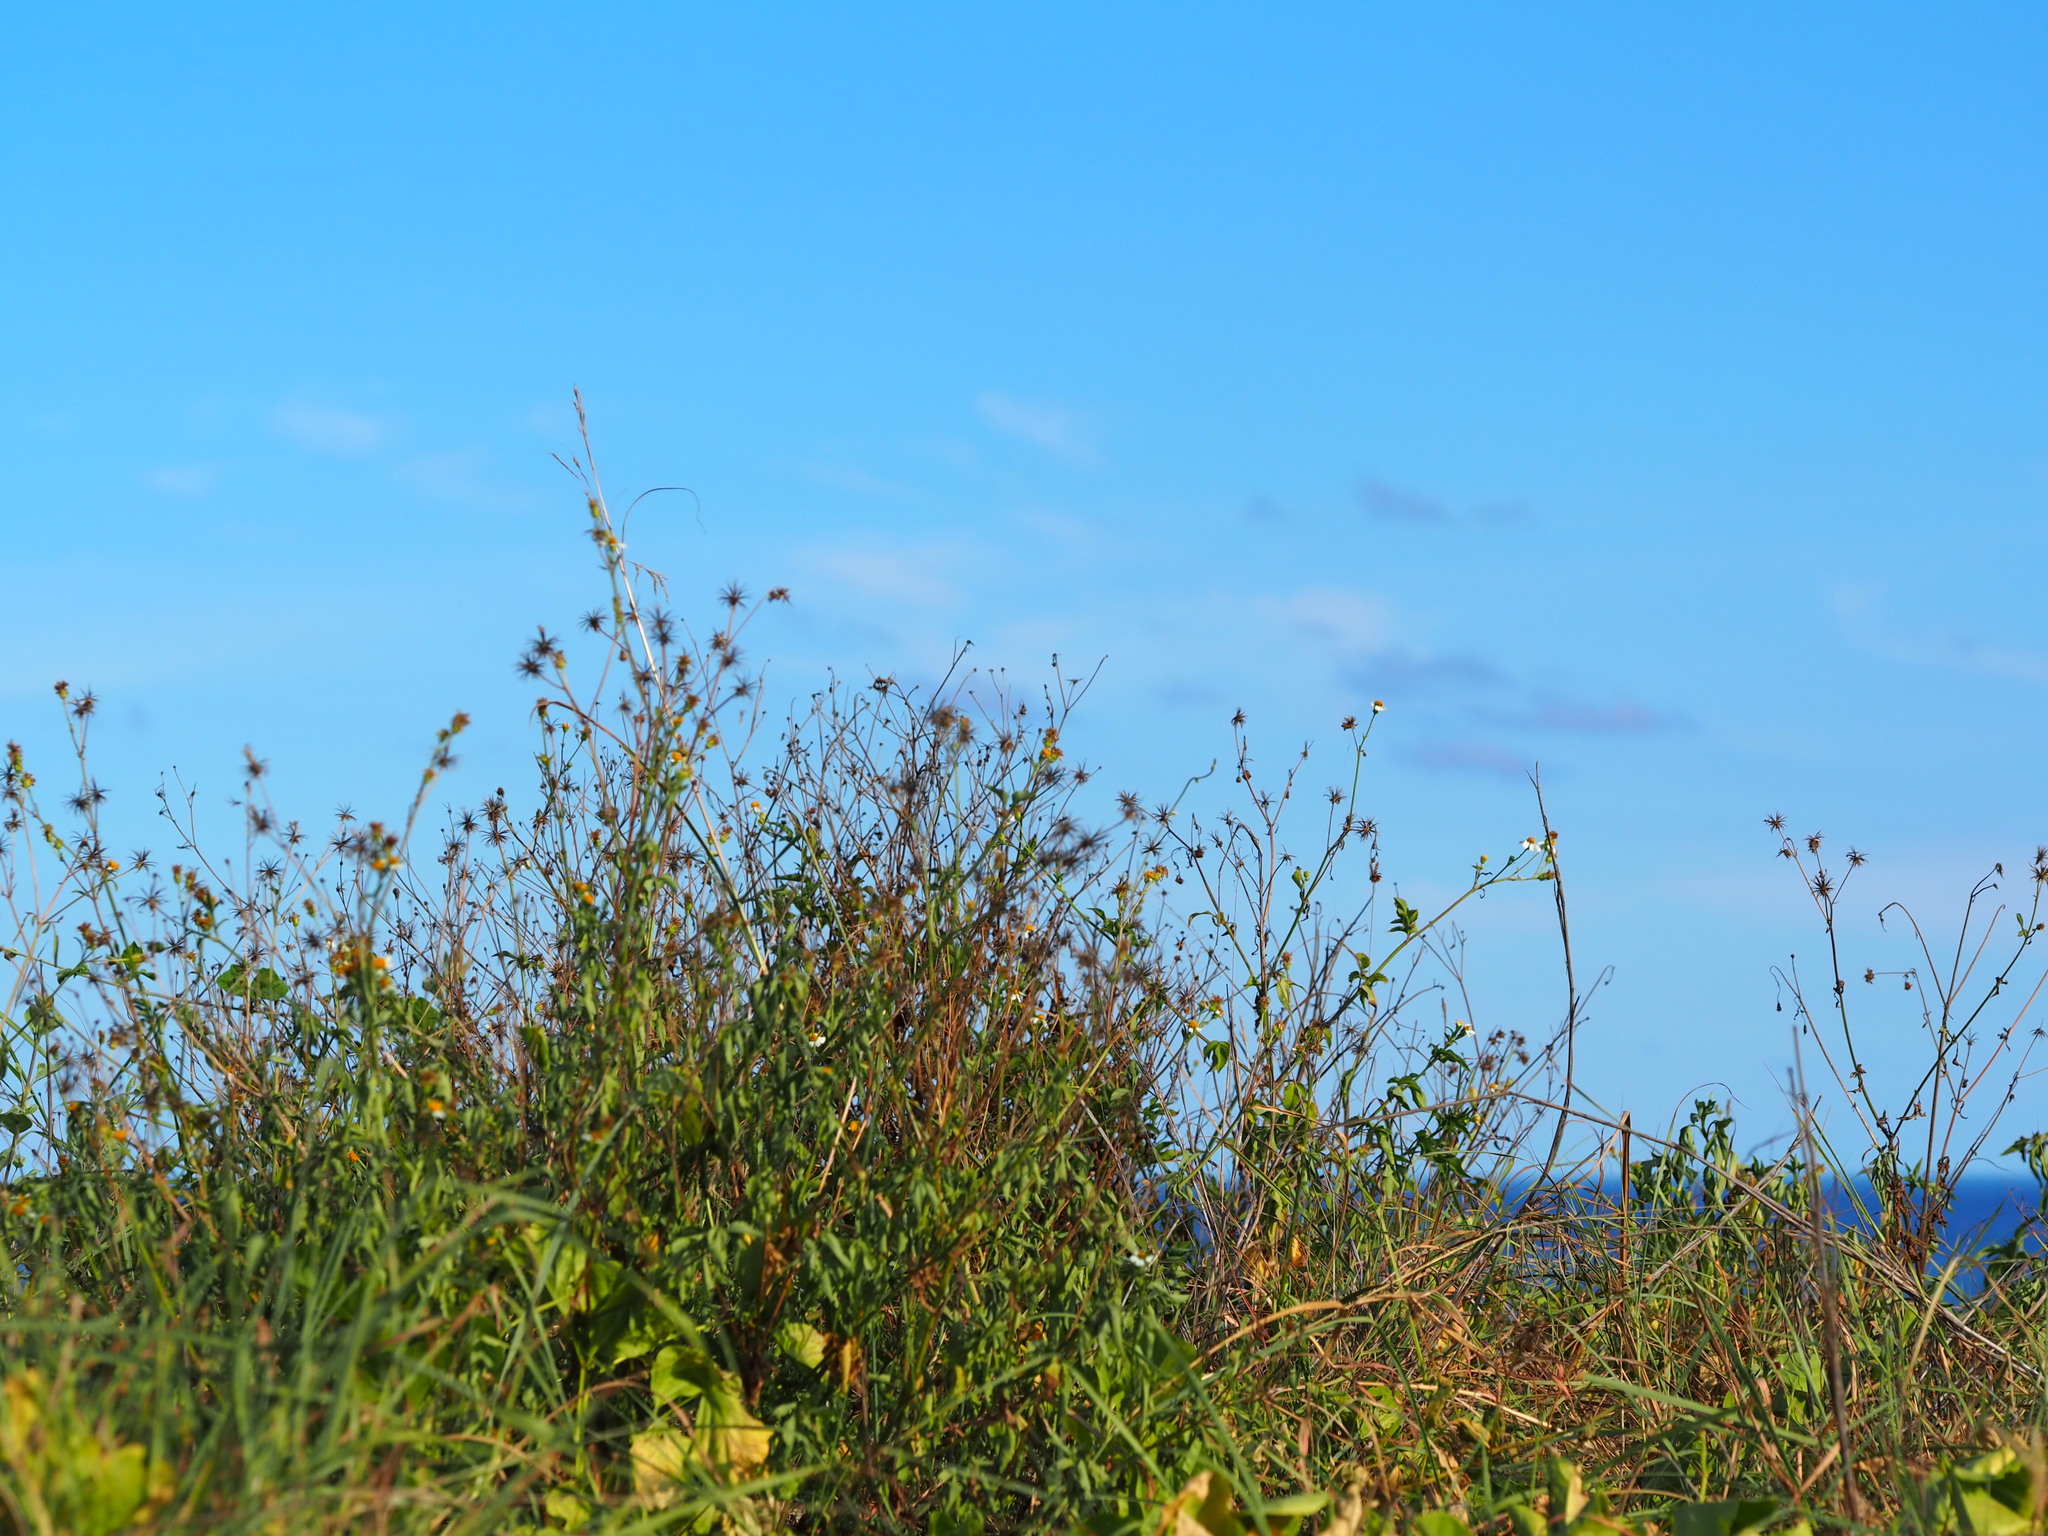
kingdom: Plantae
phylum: Tracheophyta
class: Magnoliopsida
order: Asterales
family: Asteraceae
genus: Bidens
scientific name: Bidens alba
